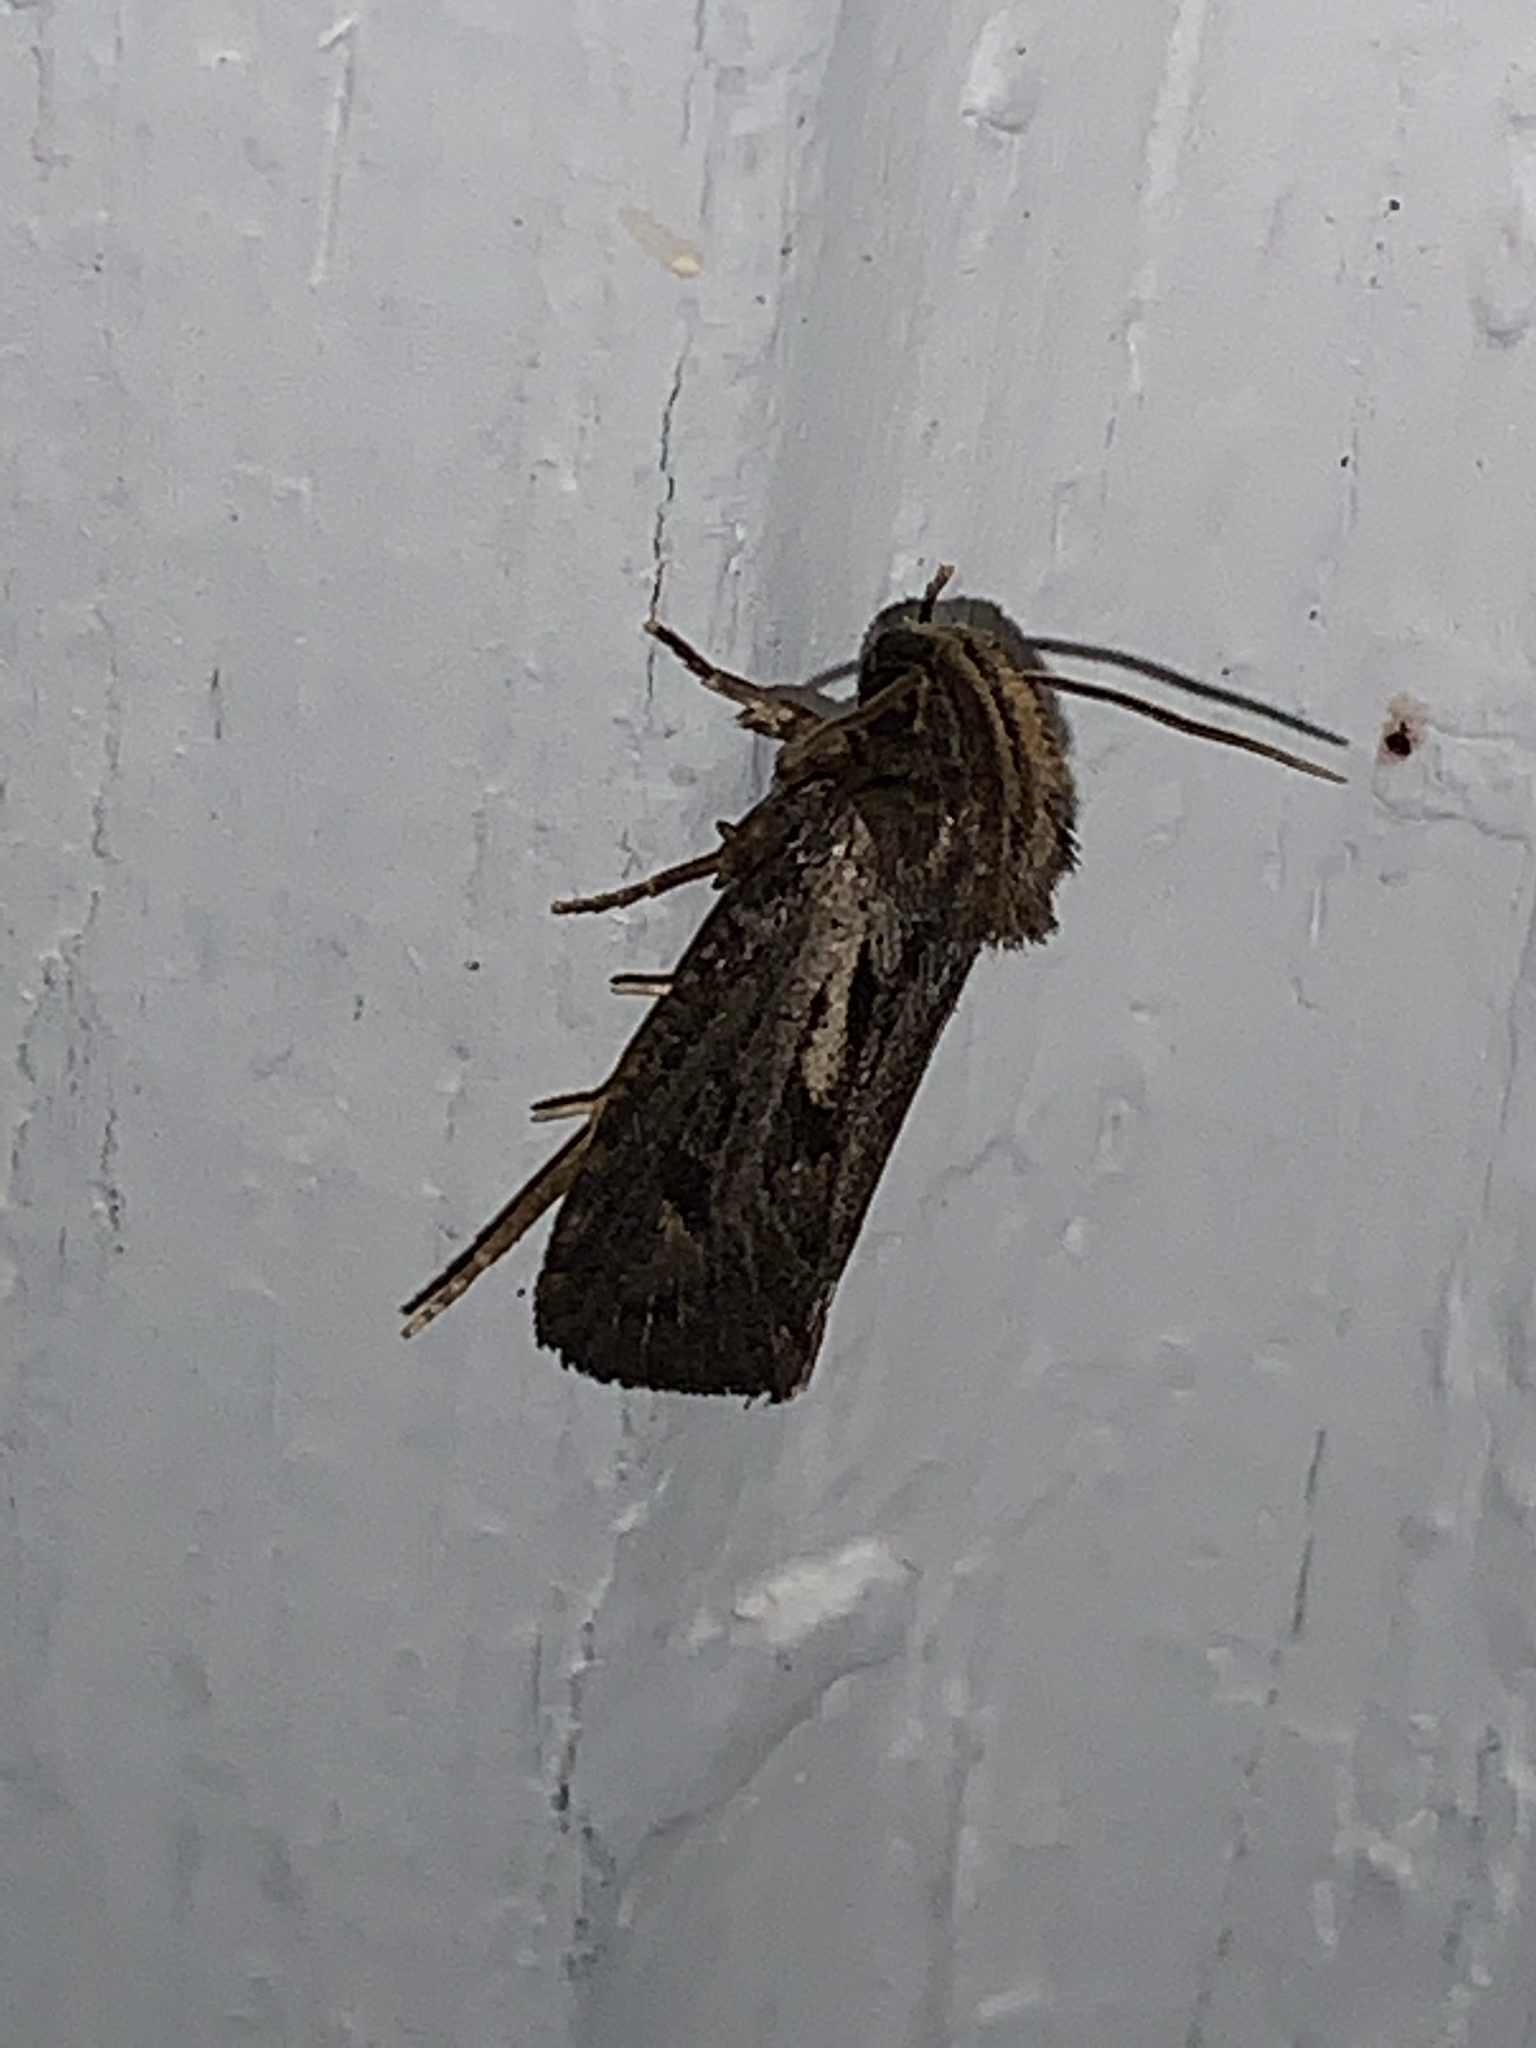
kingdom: Animalia
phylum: Arthropoda
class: Insecta
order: Lepidoptera
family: Tineidae
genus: Acrolophus
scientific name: Acrolophus popeanella
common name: Clemens' grass tubeworm moth
